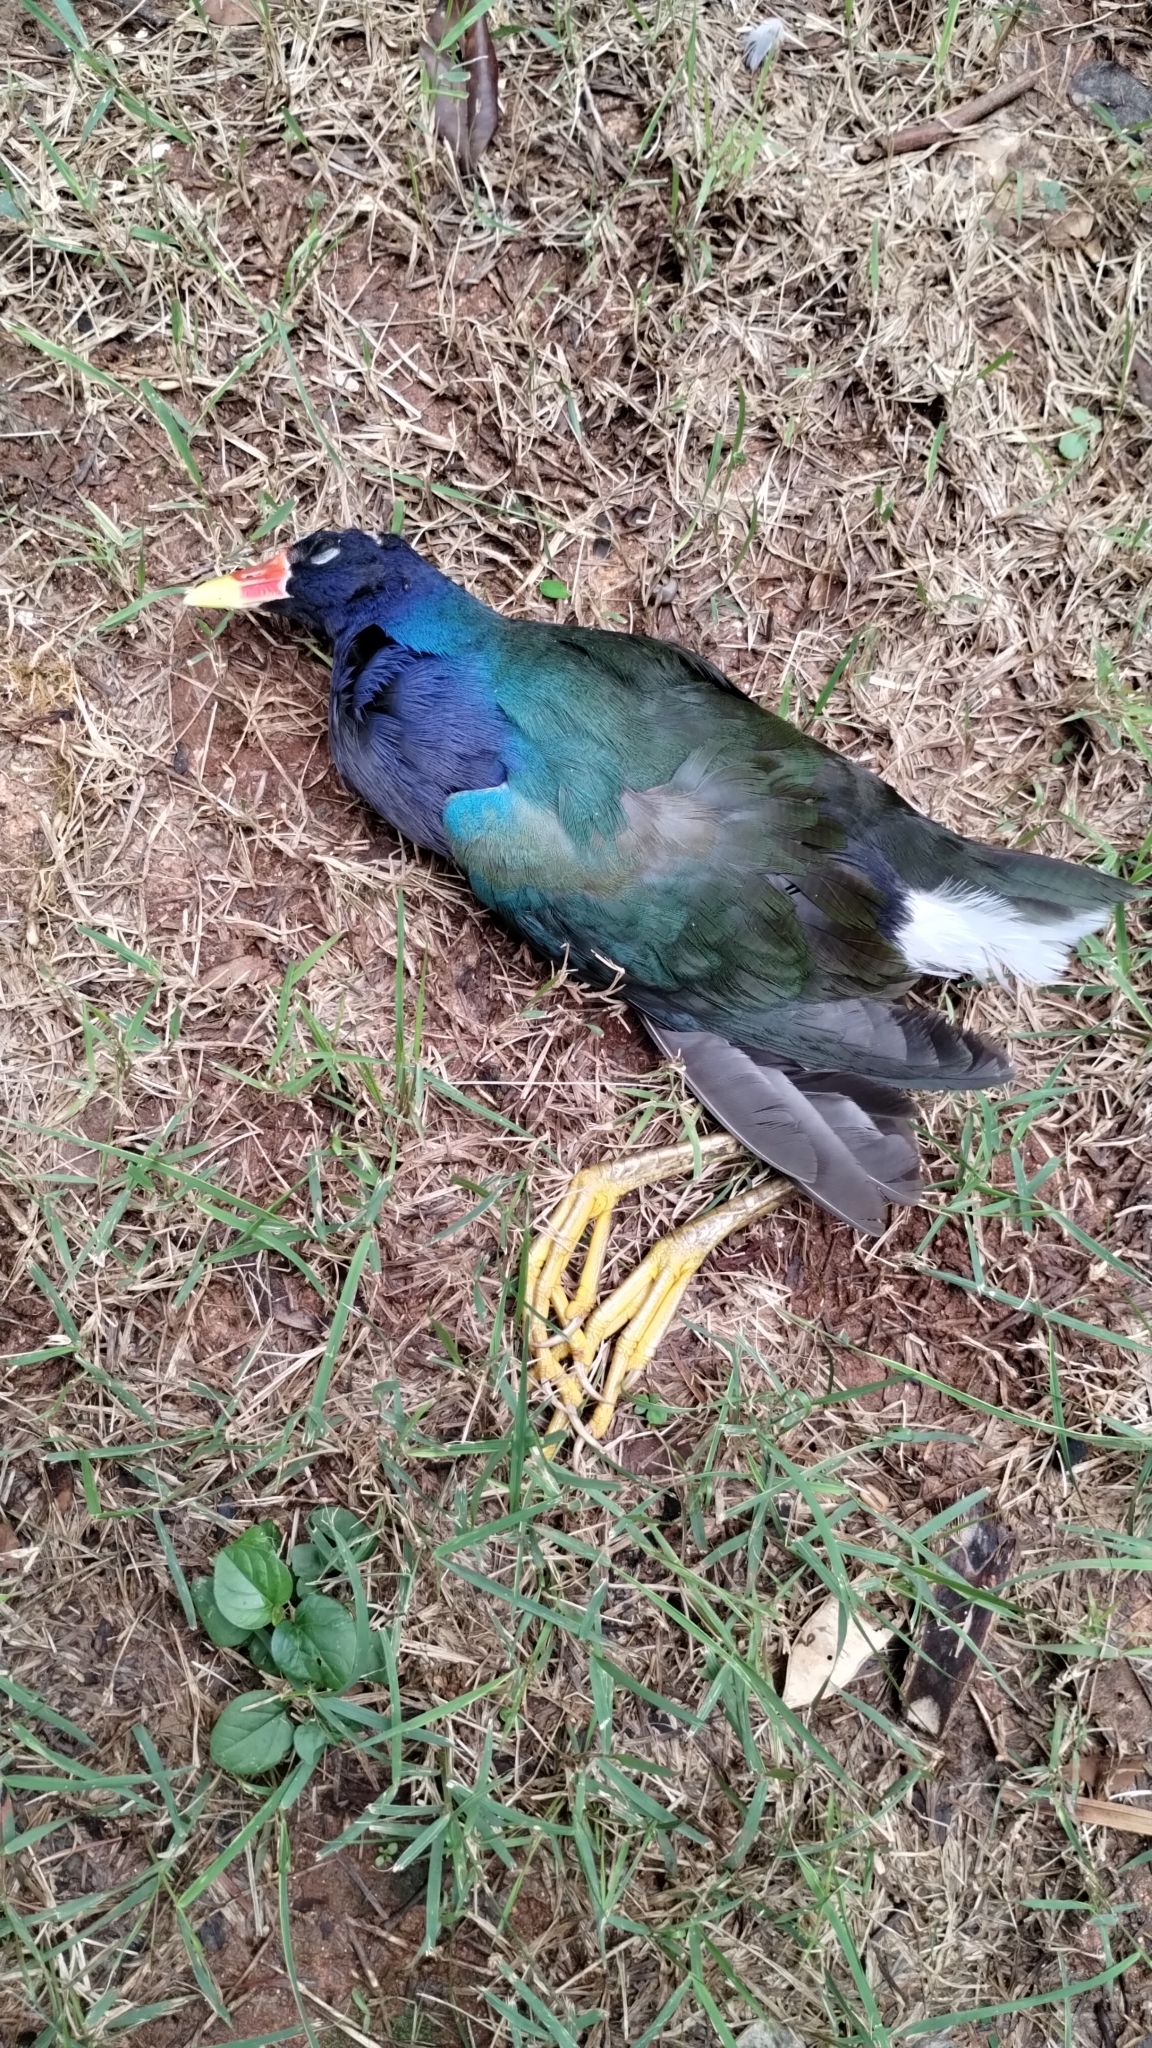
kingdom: Animalia
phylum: Chordata
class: Aves
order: Gruiformes
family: Rallidae
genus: Porphyrio
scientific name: Porphyrio martinica
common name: Purple gallinule
